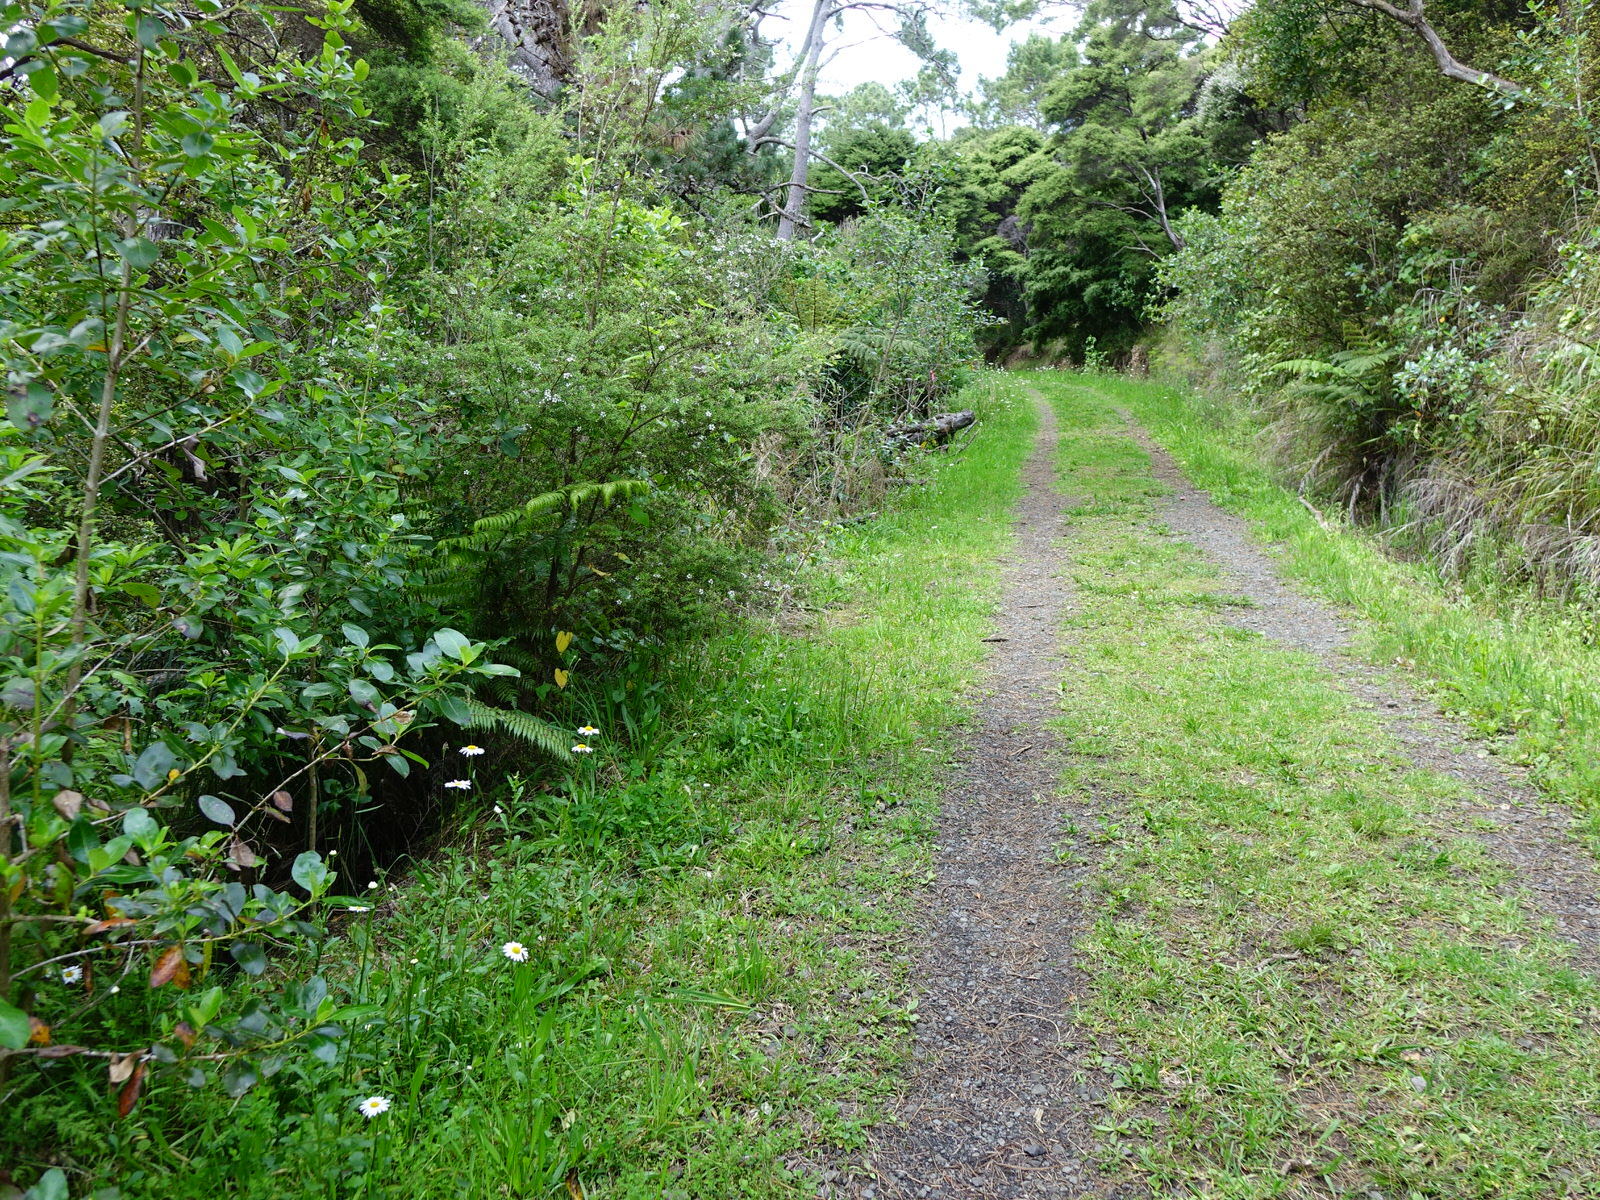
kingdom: Plantae
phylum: Tracheophyta
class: Liliopsida
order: Asparagales
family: Iridaceae
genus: Gladiolus
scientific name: Gladiolus carneus
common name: Painted-lady
